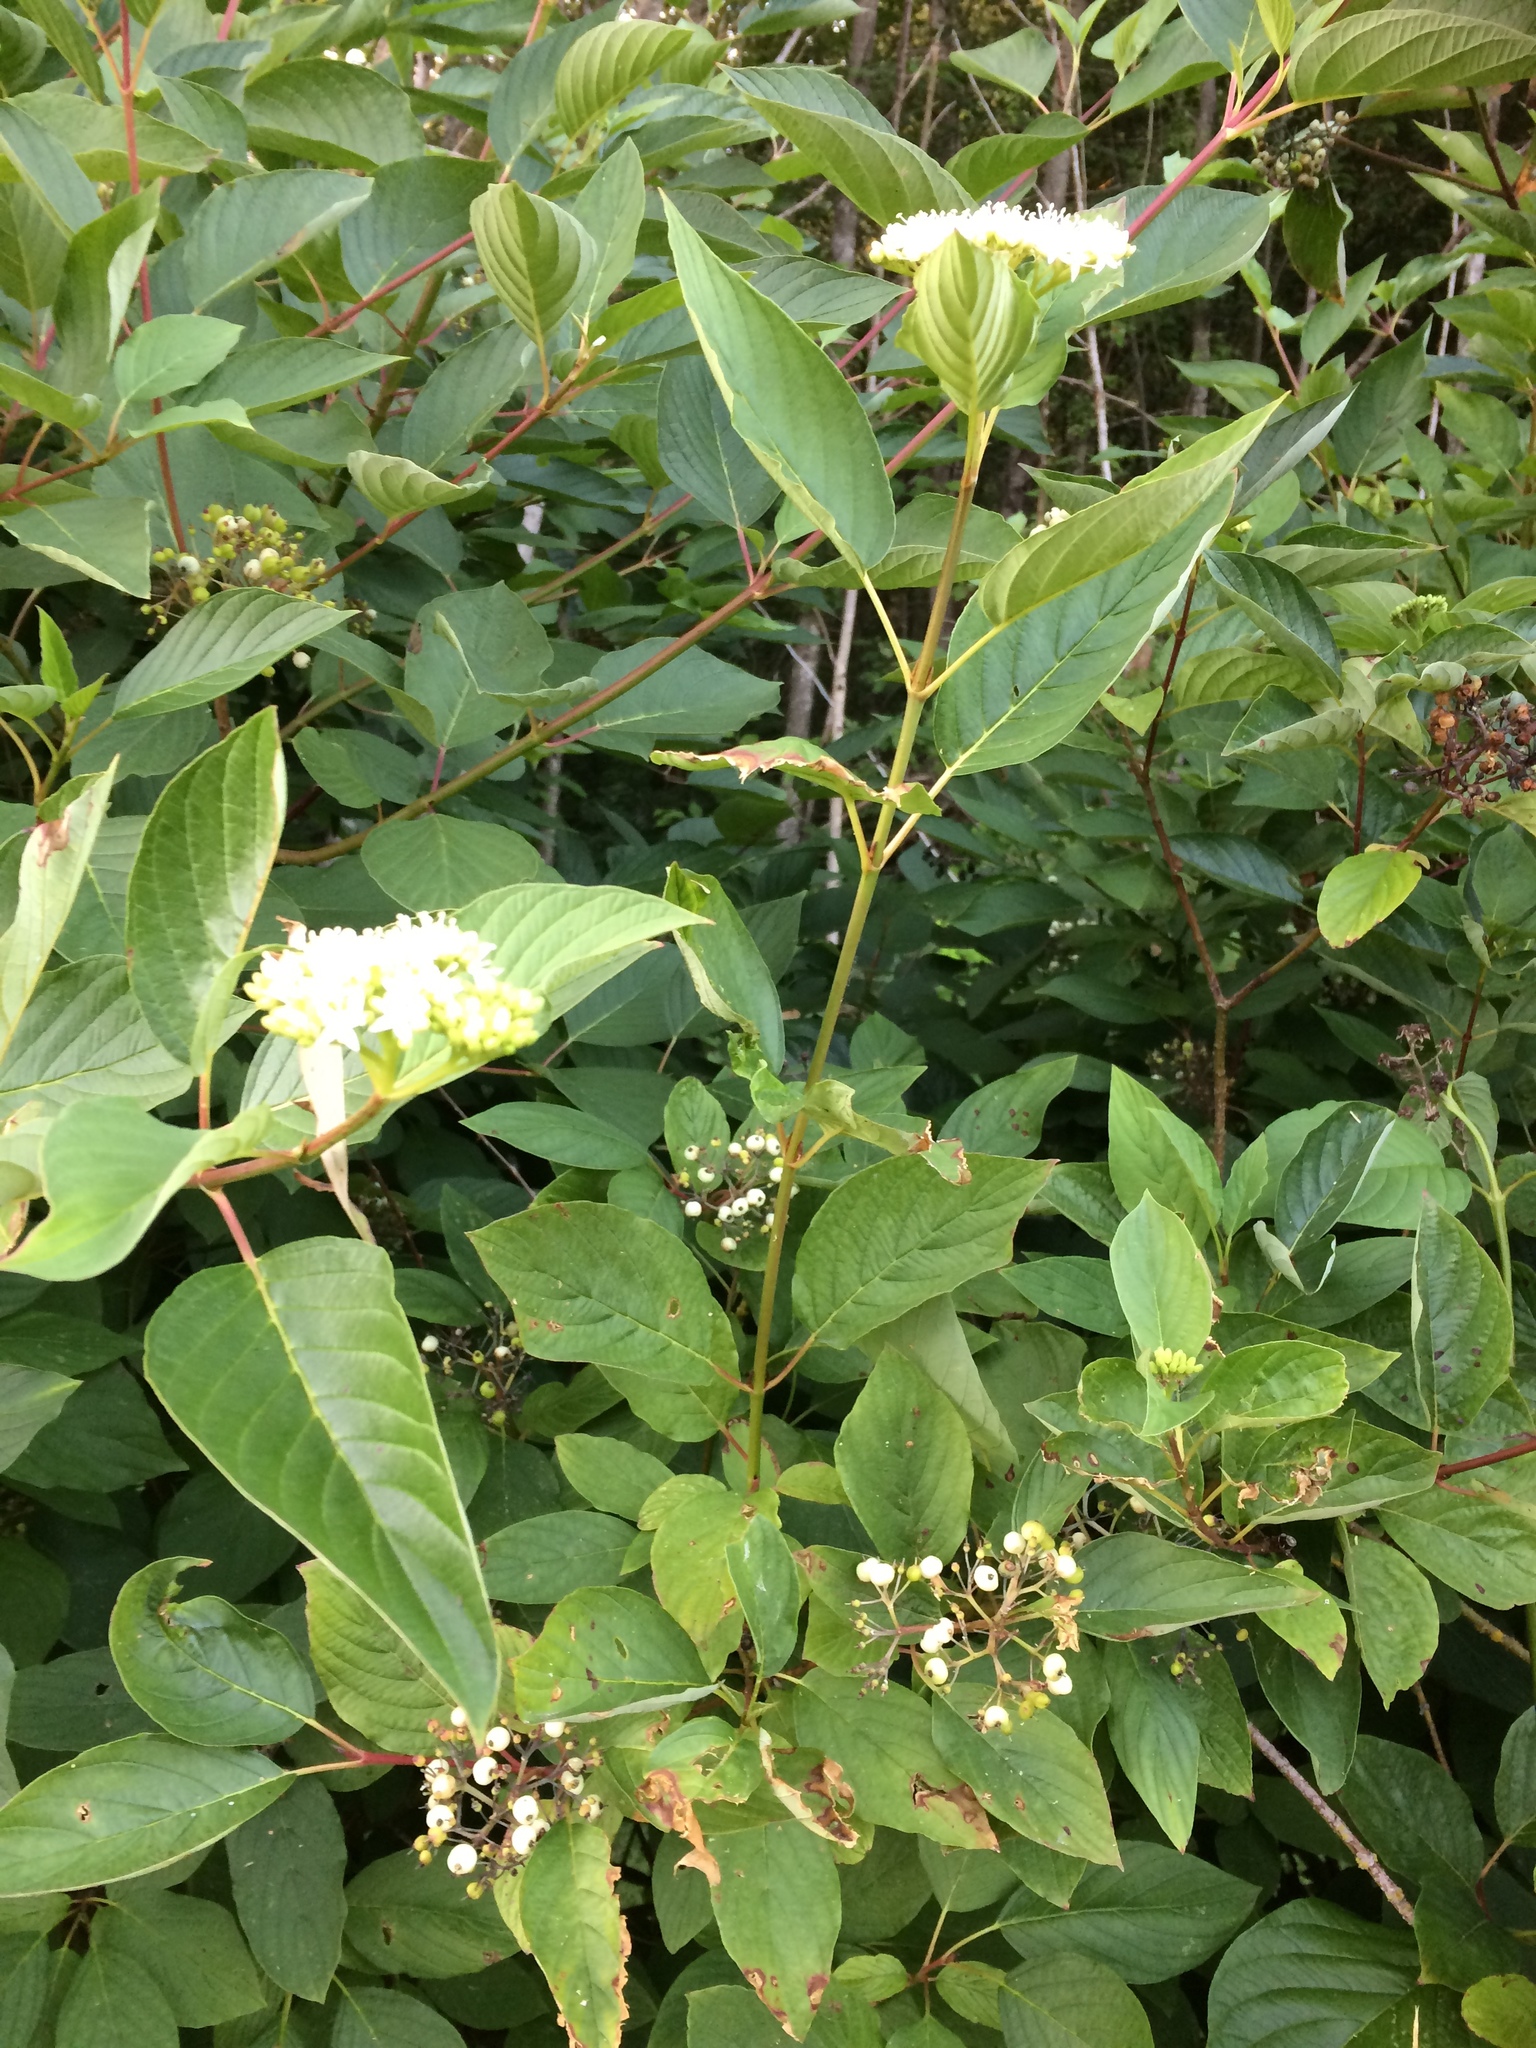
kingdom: Plantae
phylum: Tracheophyta
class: Magnoliopsida
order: Cornales
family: Cornaceae
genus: Cornus
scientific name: Cornus sericea
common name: Red-osier dogwood
